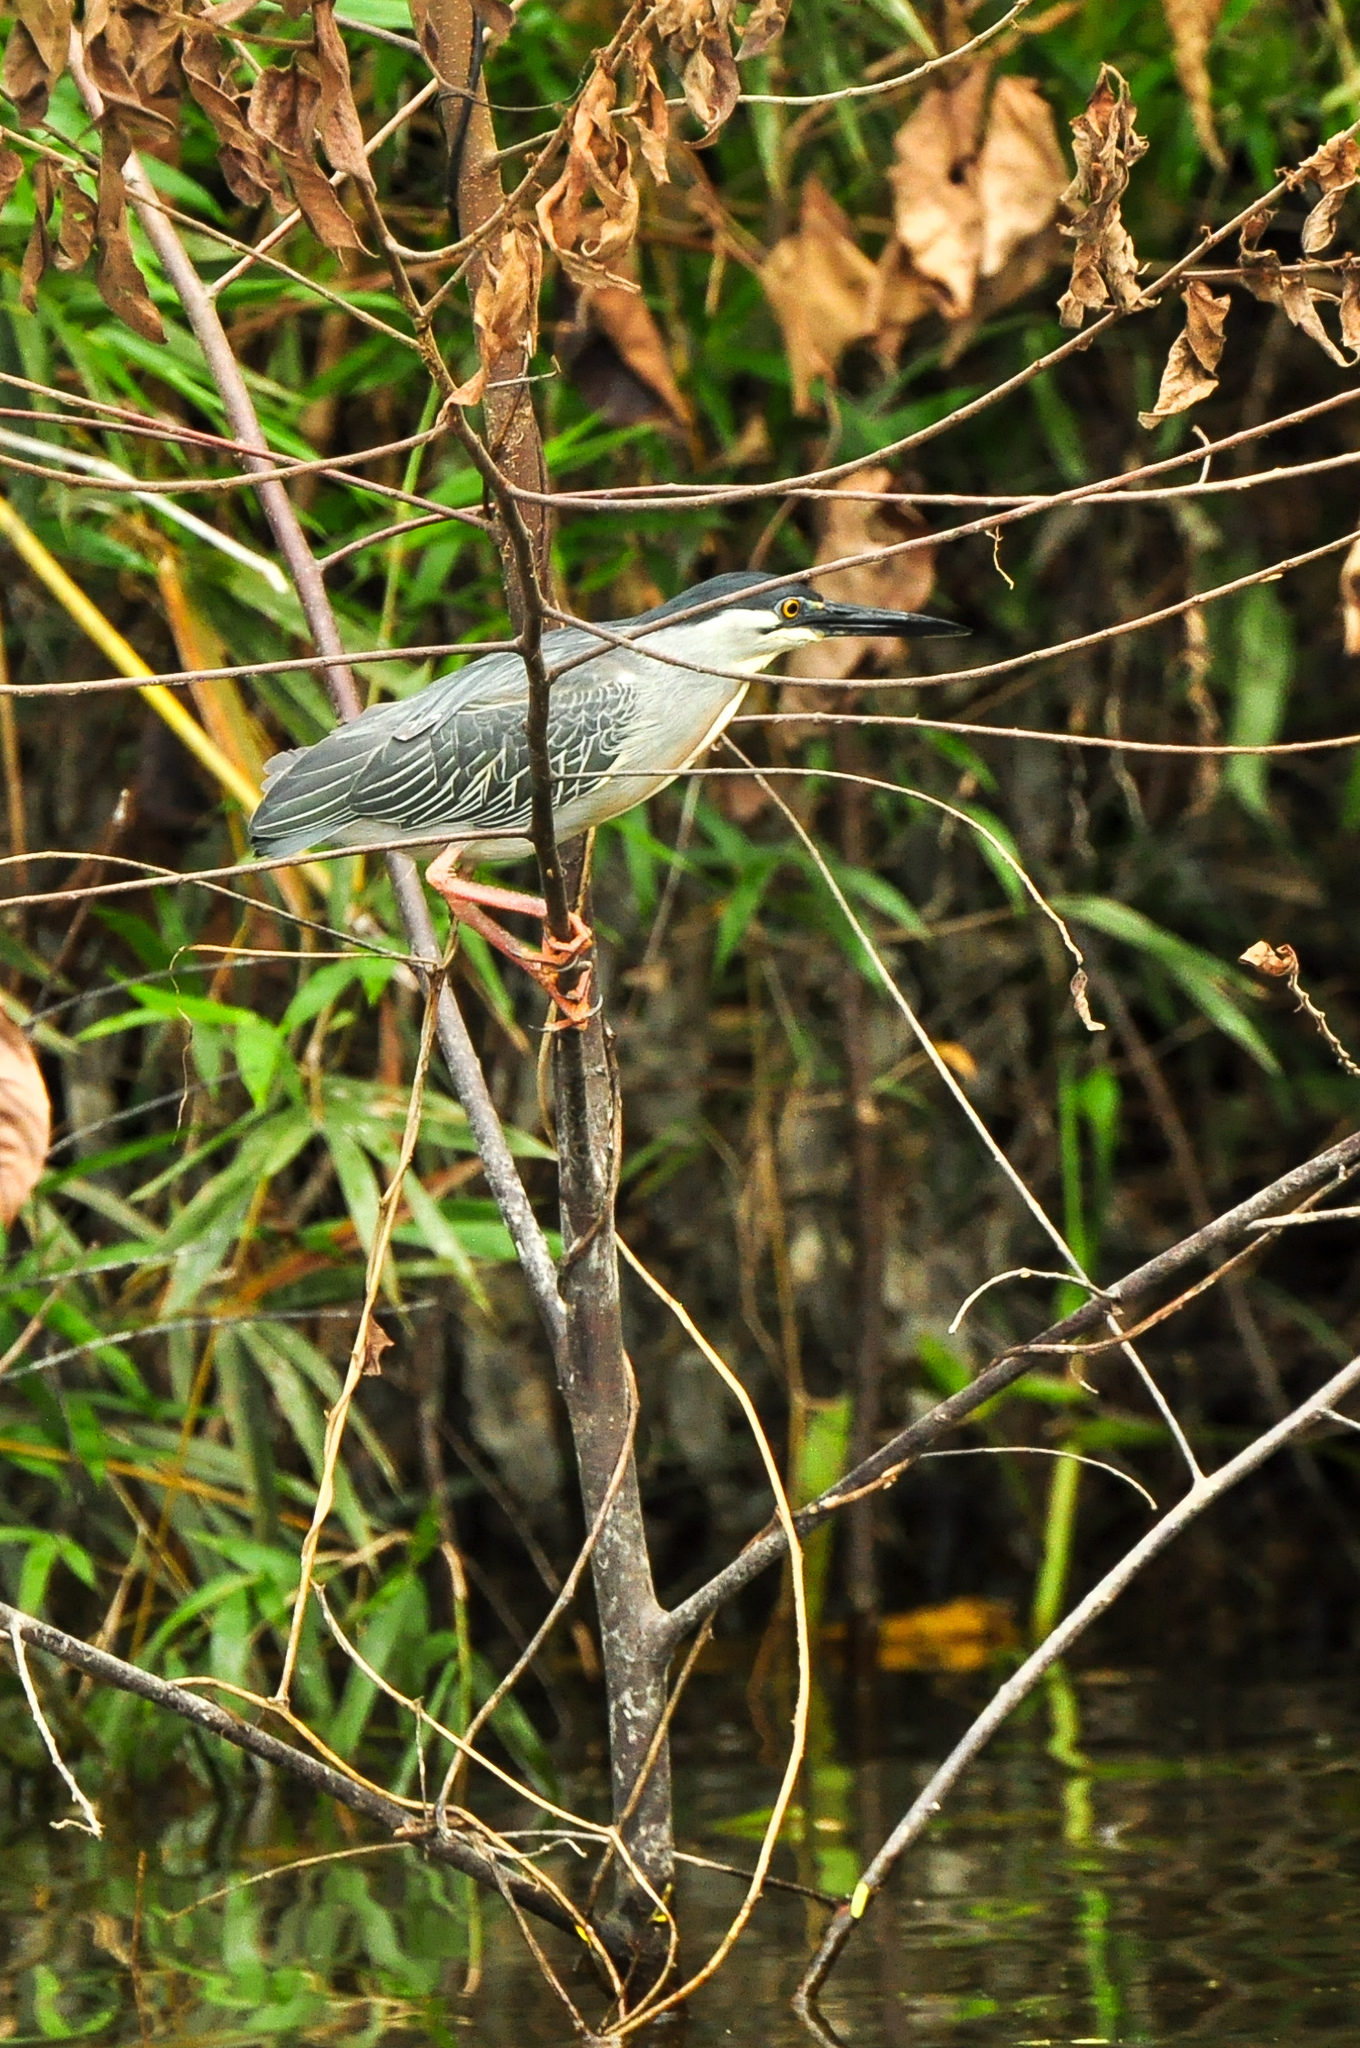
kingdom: Animalia
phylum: Chordata
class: Aves
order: Pelecaniformes
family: Ardeidae
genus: Butorides
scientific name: Butorides striata
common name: Striated heron
